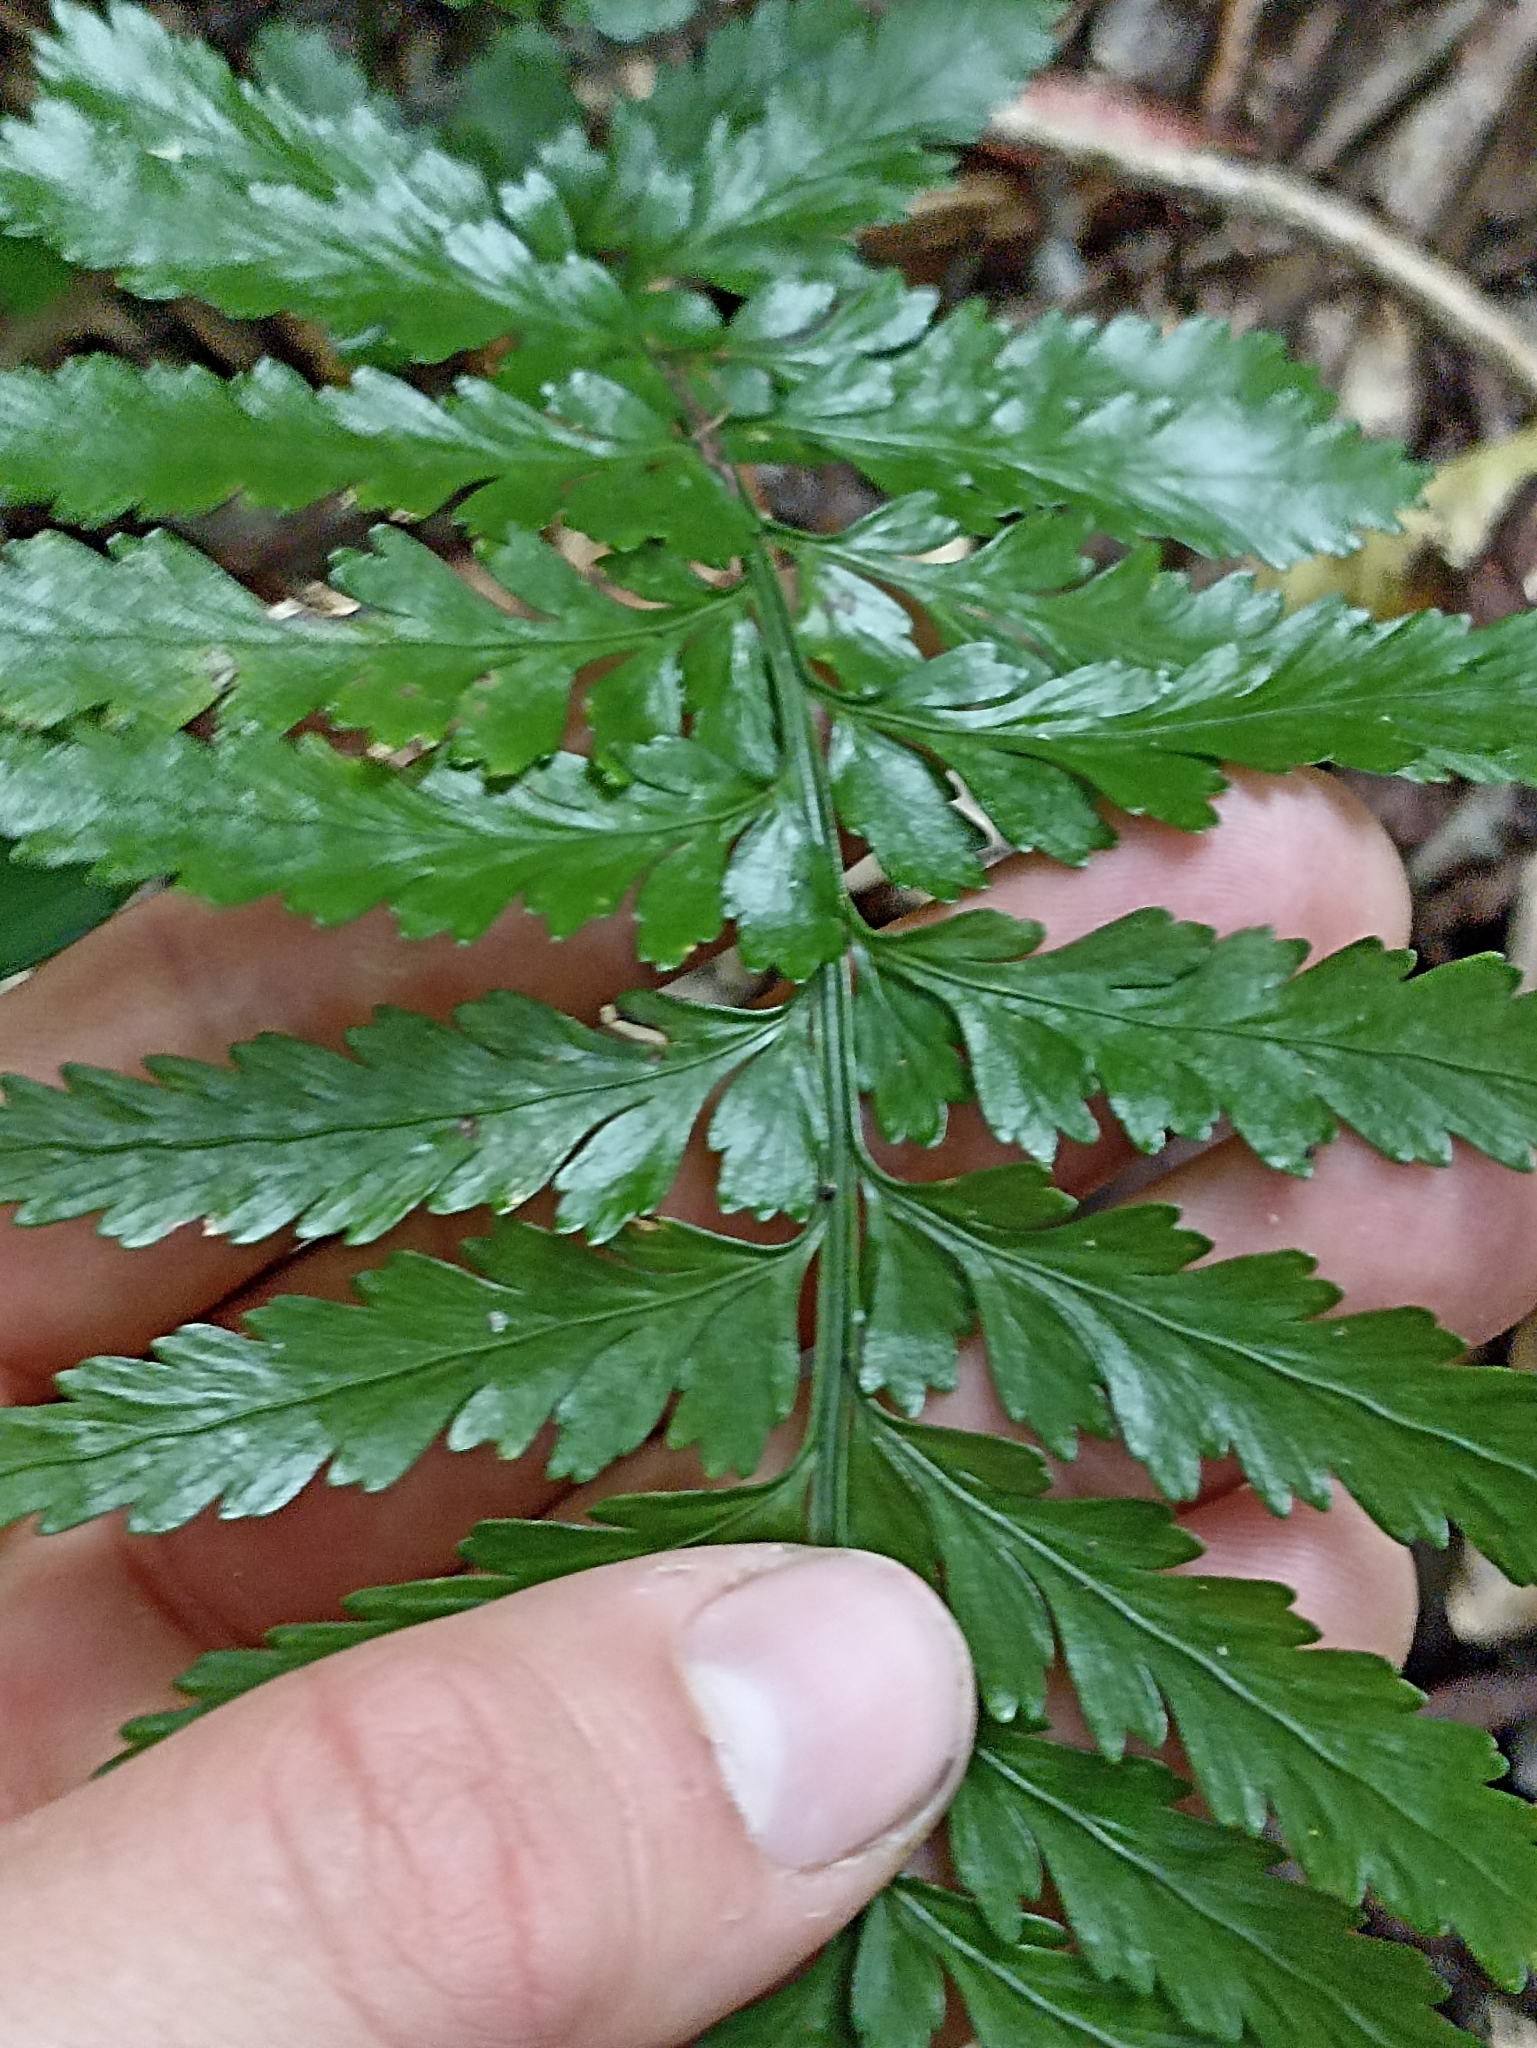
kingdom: Plantae
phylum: Tracheophyta
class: Polypodiopsida
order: Polypodiales
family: Aspleniaceae
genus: Asplenium
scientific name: Asplenium lamprophyllum
